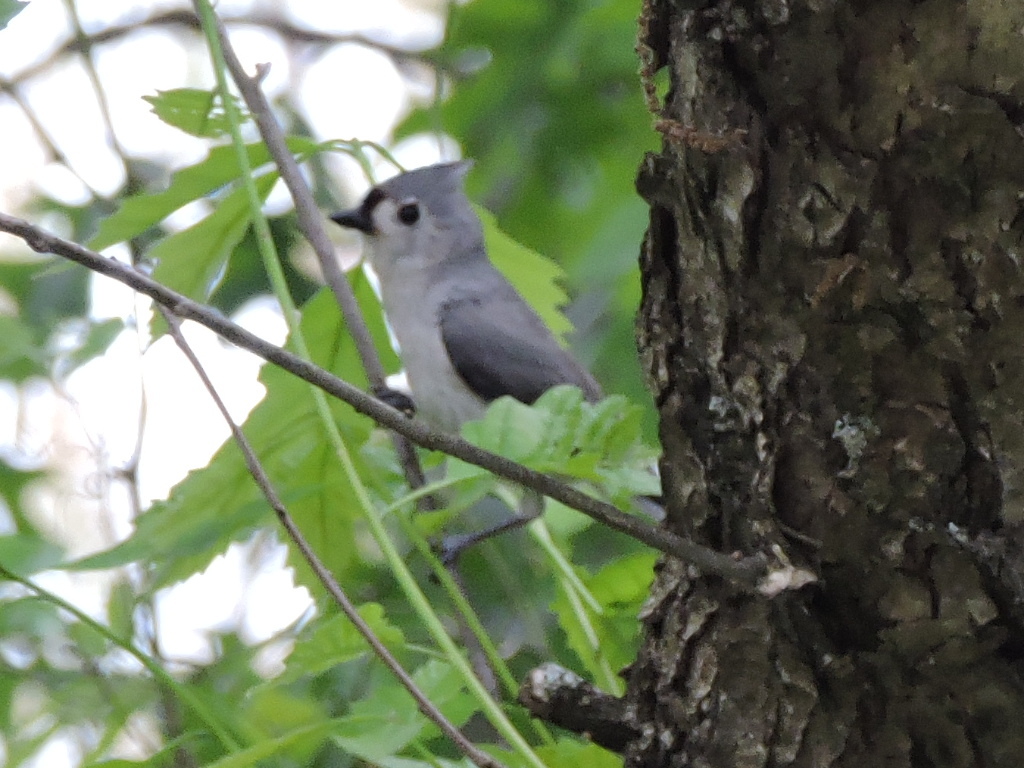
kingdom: Animalia
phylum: Chordata
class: Aves
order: Passeriformes
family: Paridae
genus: Baeolophus
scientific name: Baeolophus bicolor
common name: Tufted titmouse
